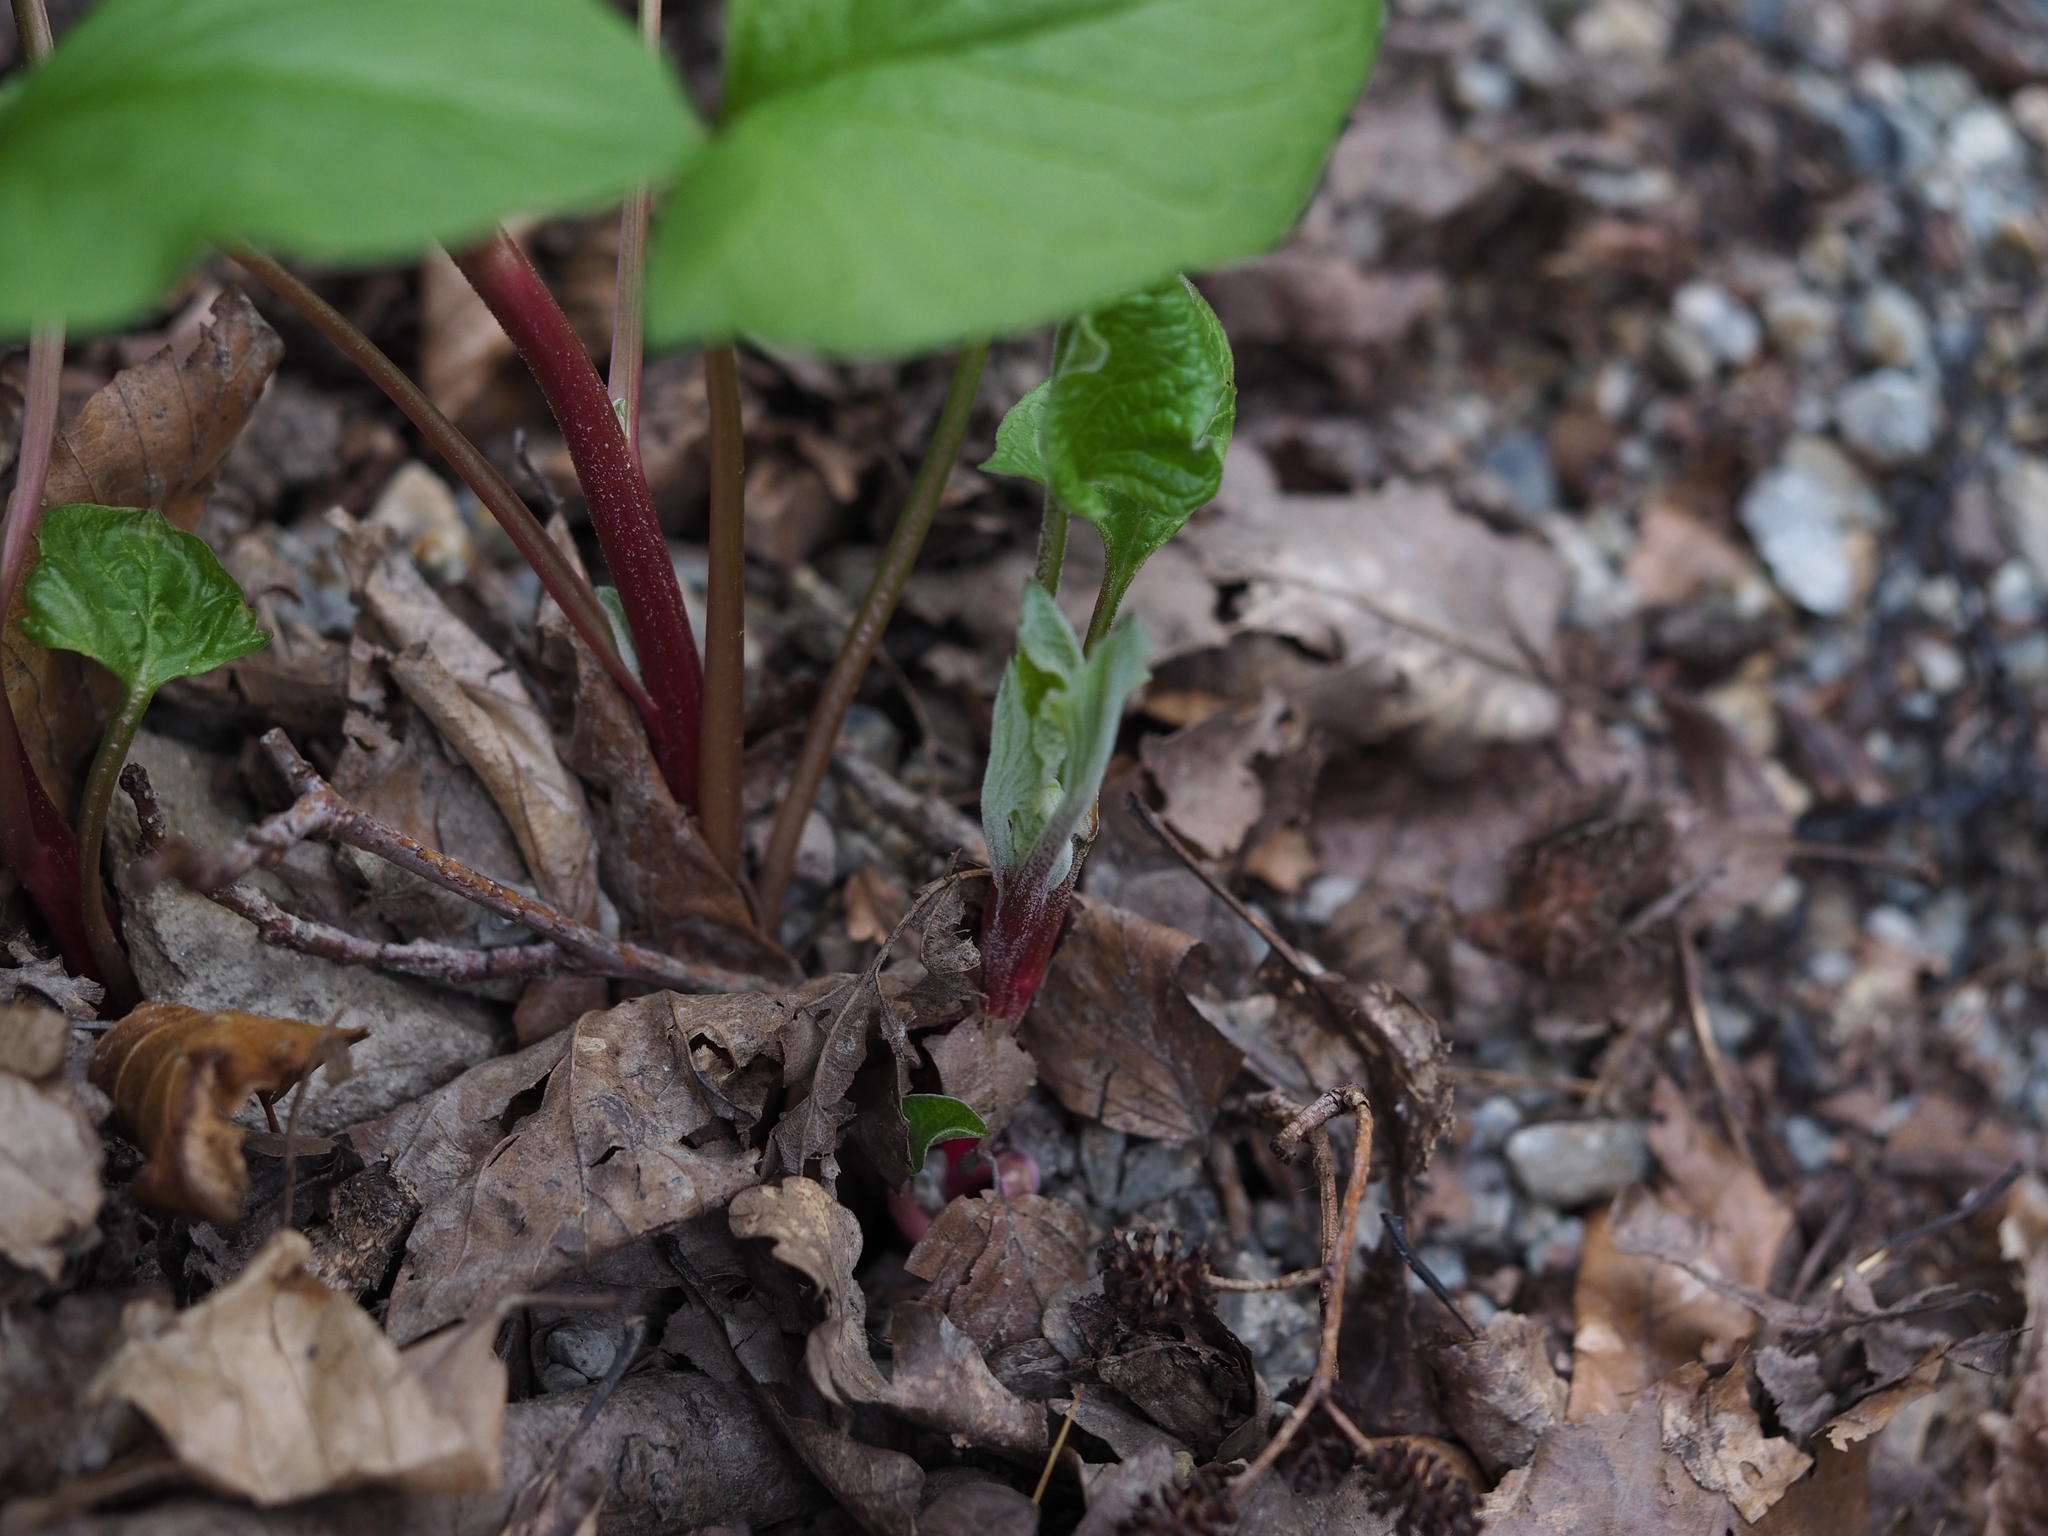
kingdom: Plantae
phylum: Tracheophyta
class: Magnoliopsida
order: Caryophyllales
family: Amaranthaceae
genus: Blitum
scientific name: Blitum bonus-henricus
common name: Good king henry
